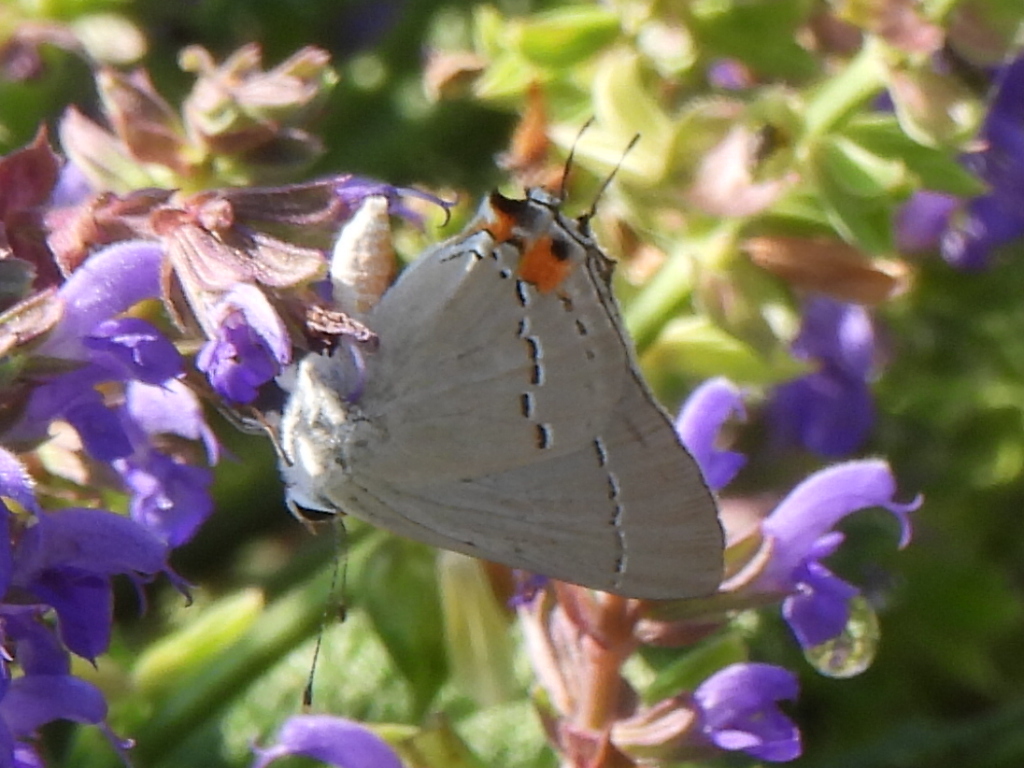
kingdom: Animalia
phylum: Arthropoda
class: Insecta
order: Lepidoptera
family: Lycaenidae
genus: Strymon
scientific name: Strymon melinus
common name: Gray hairstreak
